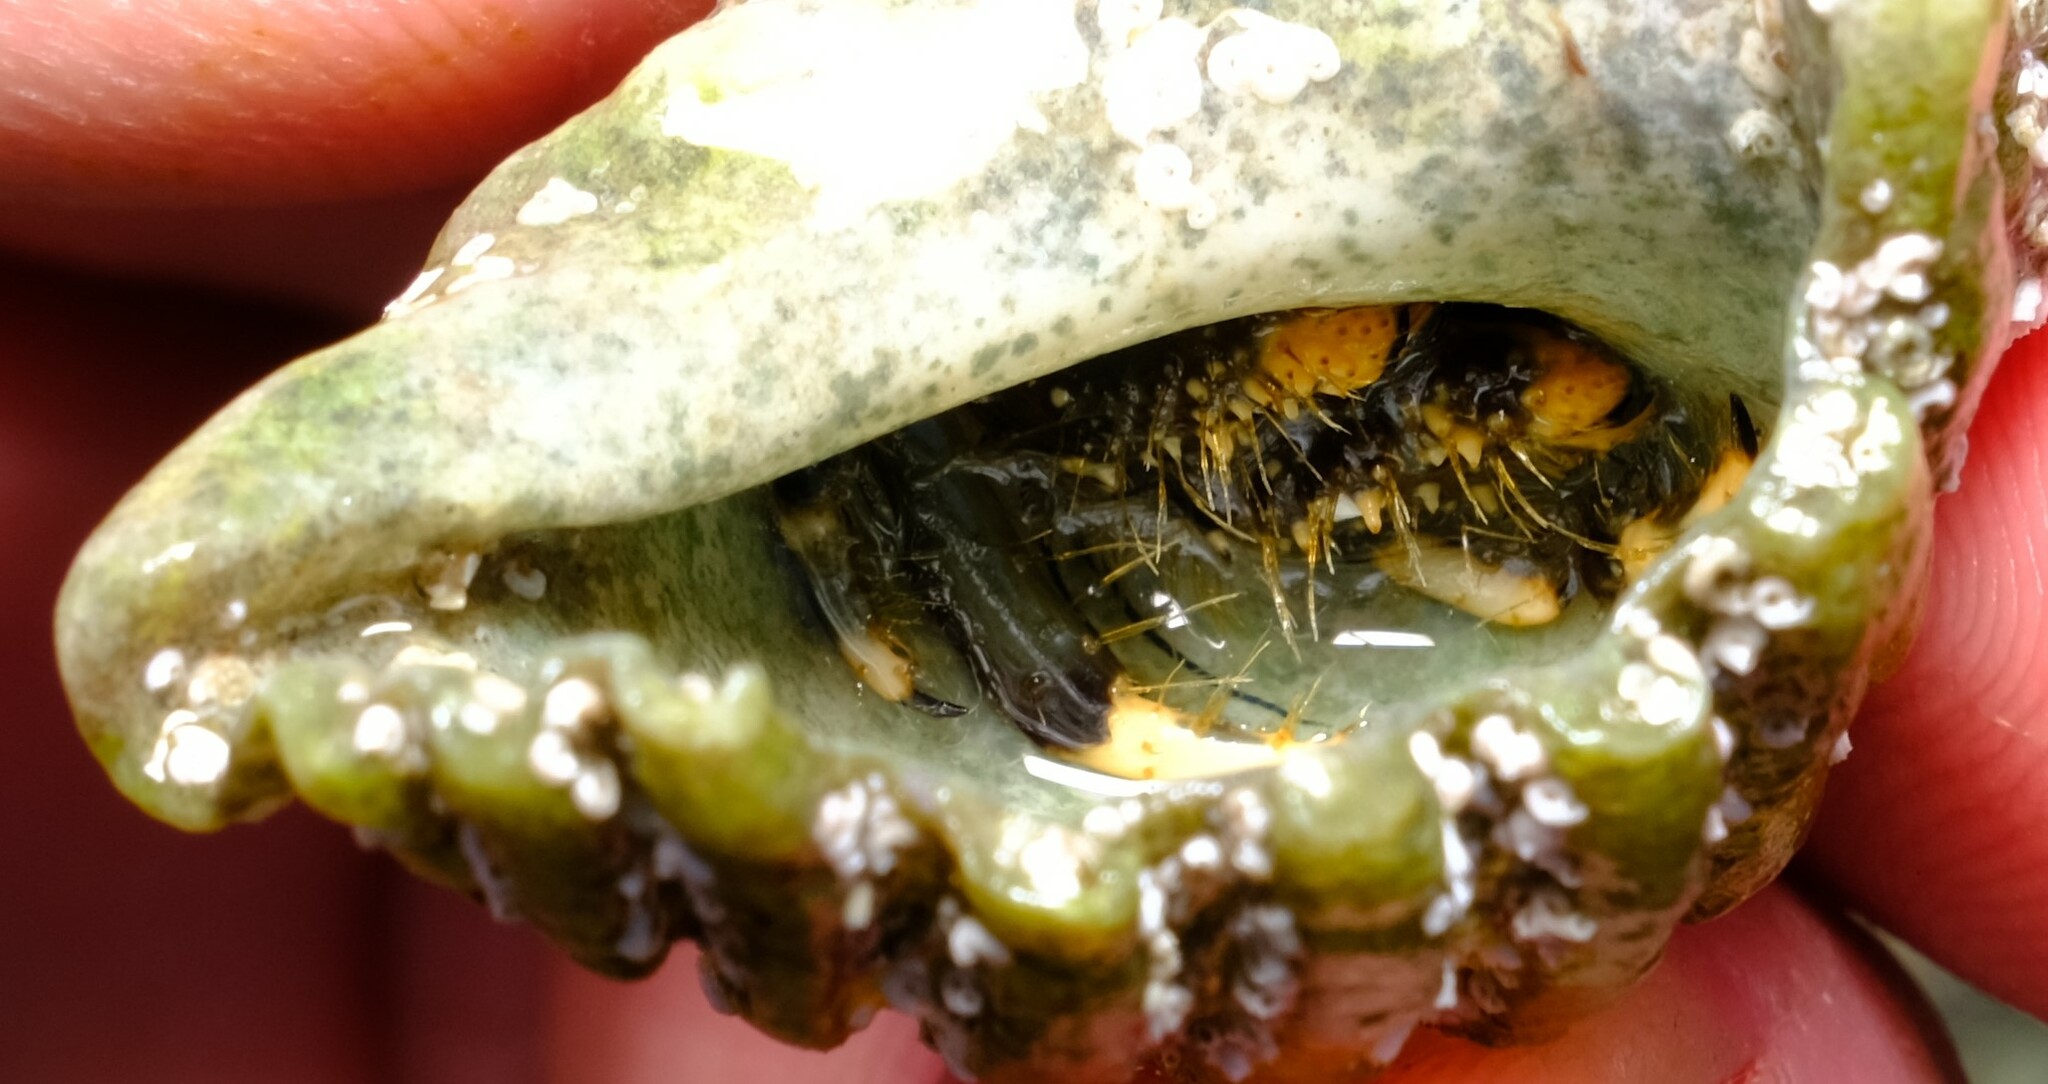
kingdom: Animalia
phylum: Arthropoda
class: Malacostraca
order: Decapoda
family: Diogenidae
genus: Clibanarius
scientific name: Clibanarius virescens
